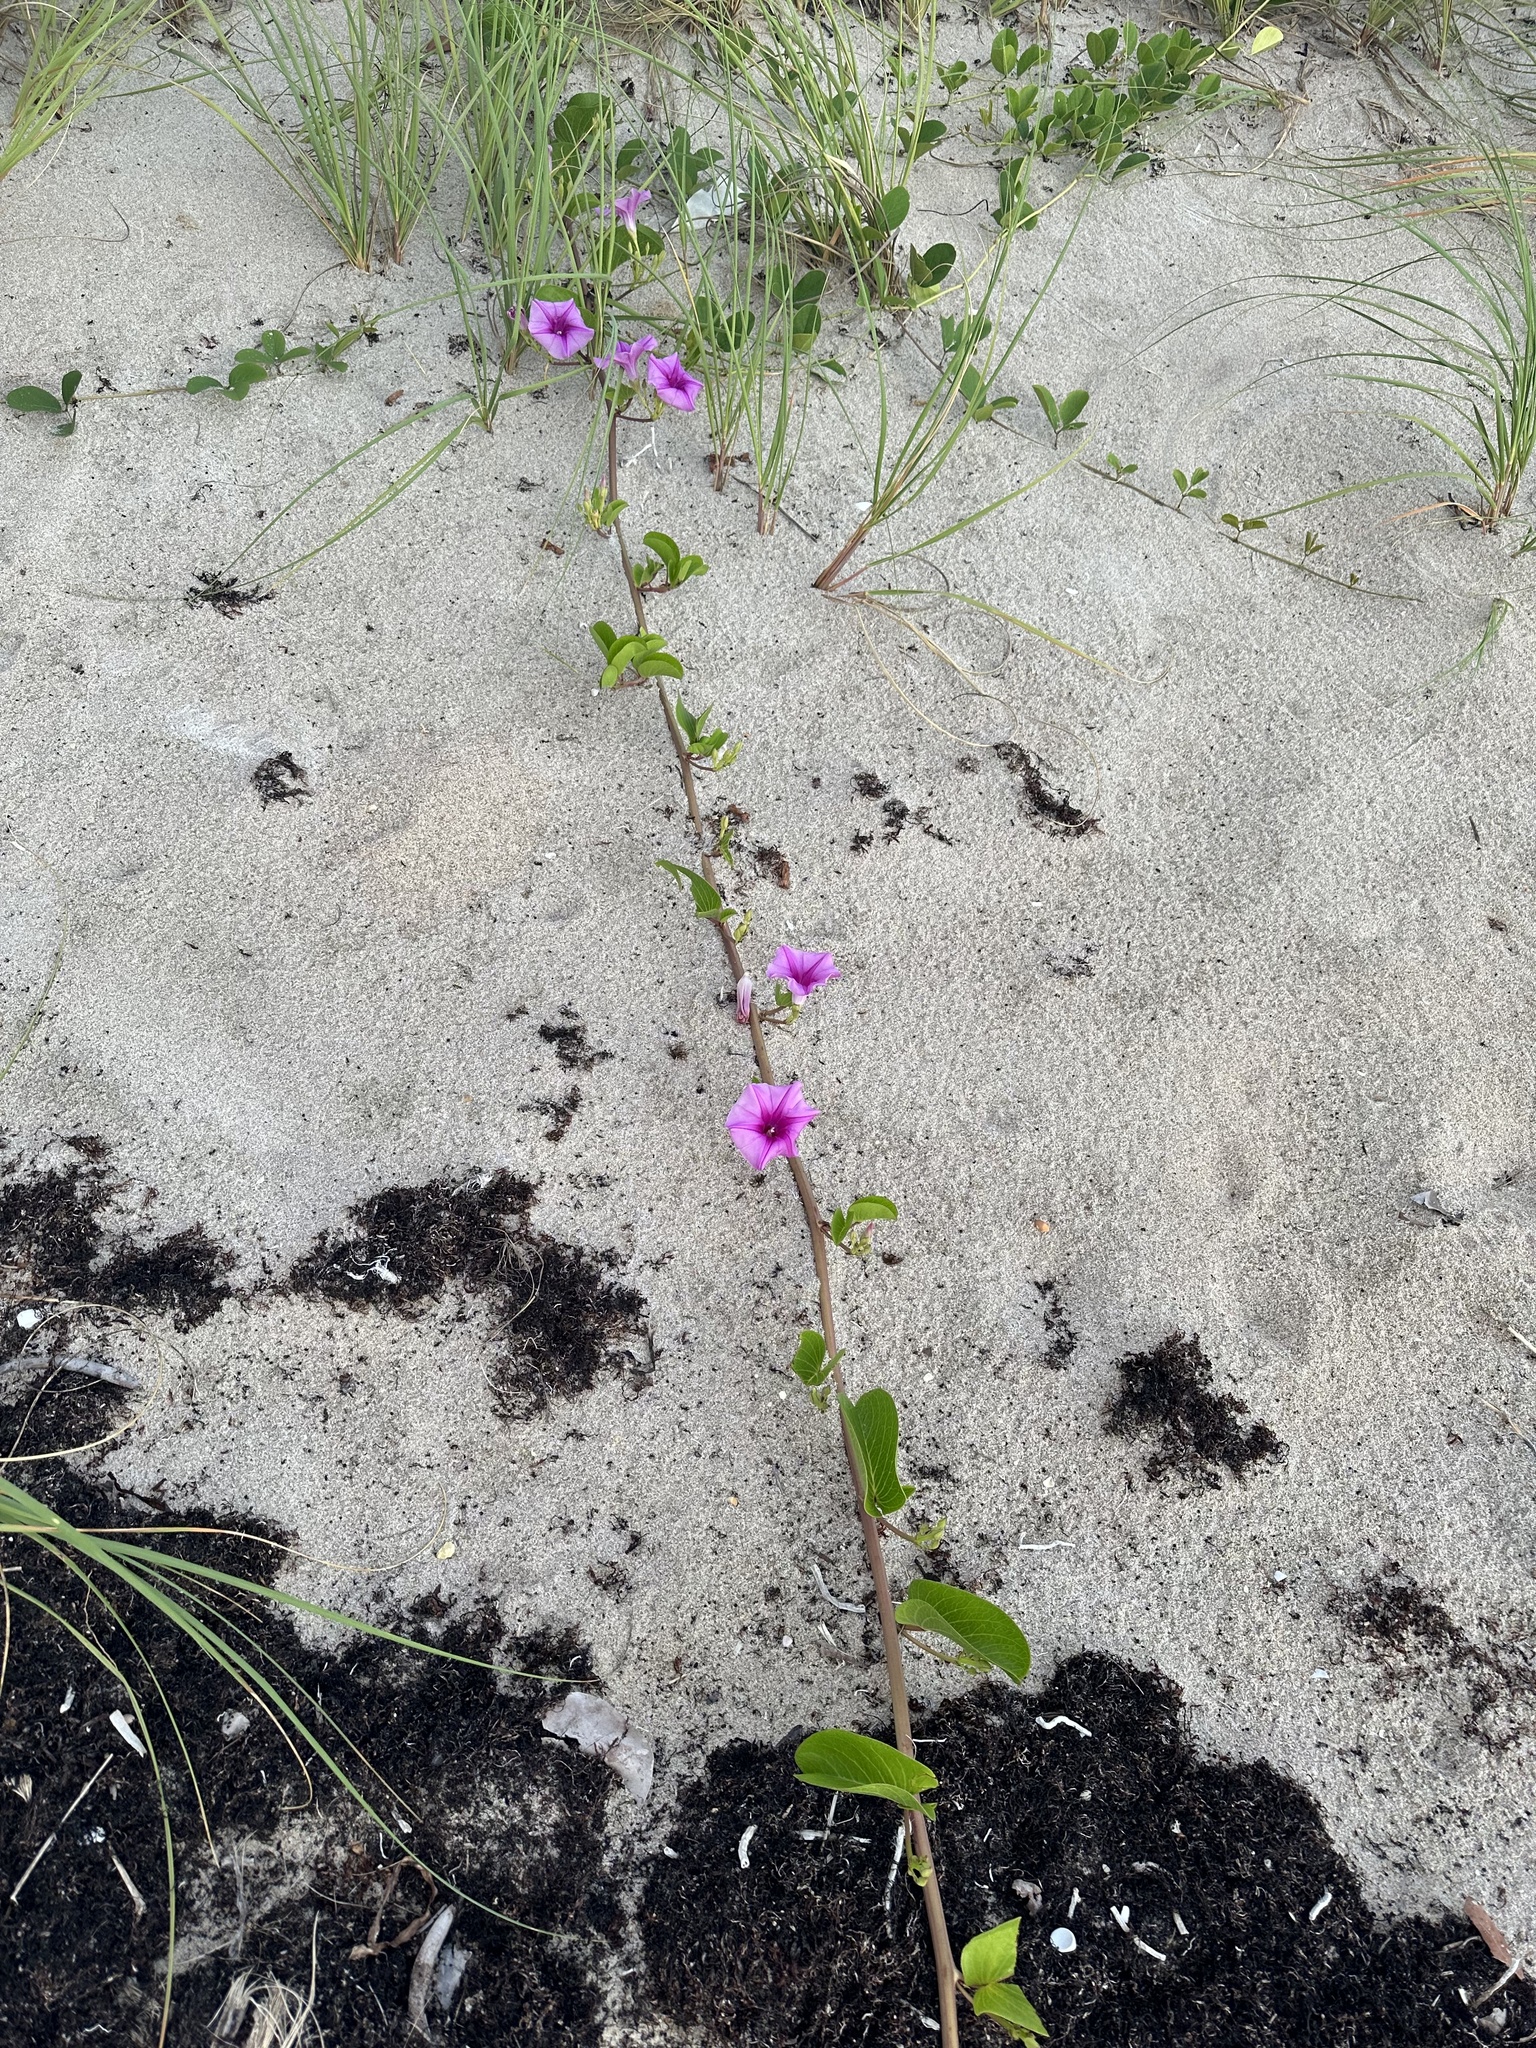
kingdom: Plantae
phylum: Tracheophyta
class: Magnoliopsida
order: Solanales
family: Convolvulaceae
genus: Ipomoea
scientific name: Ipomoea pes-caprae
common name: Beach morning glory
